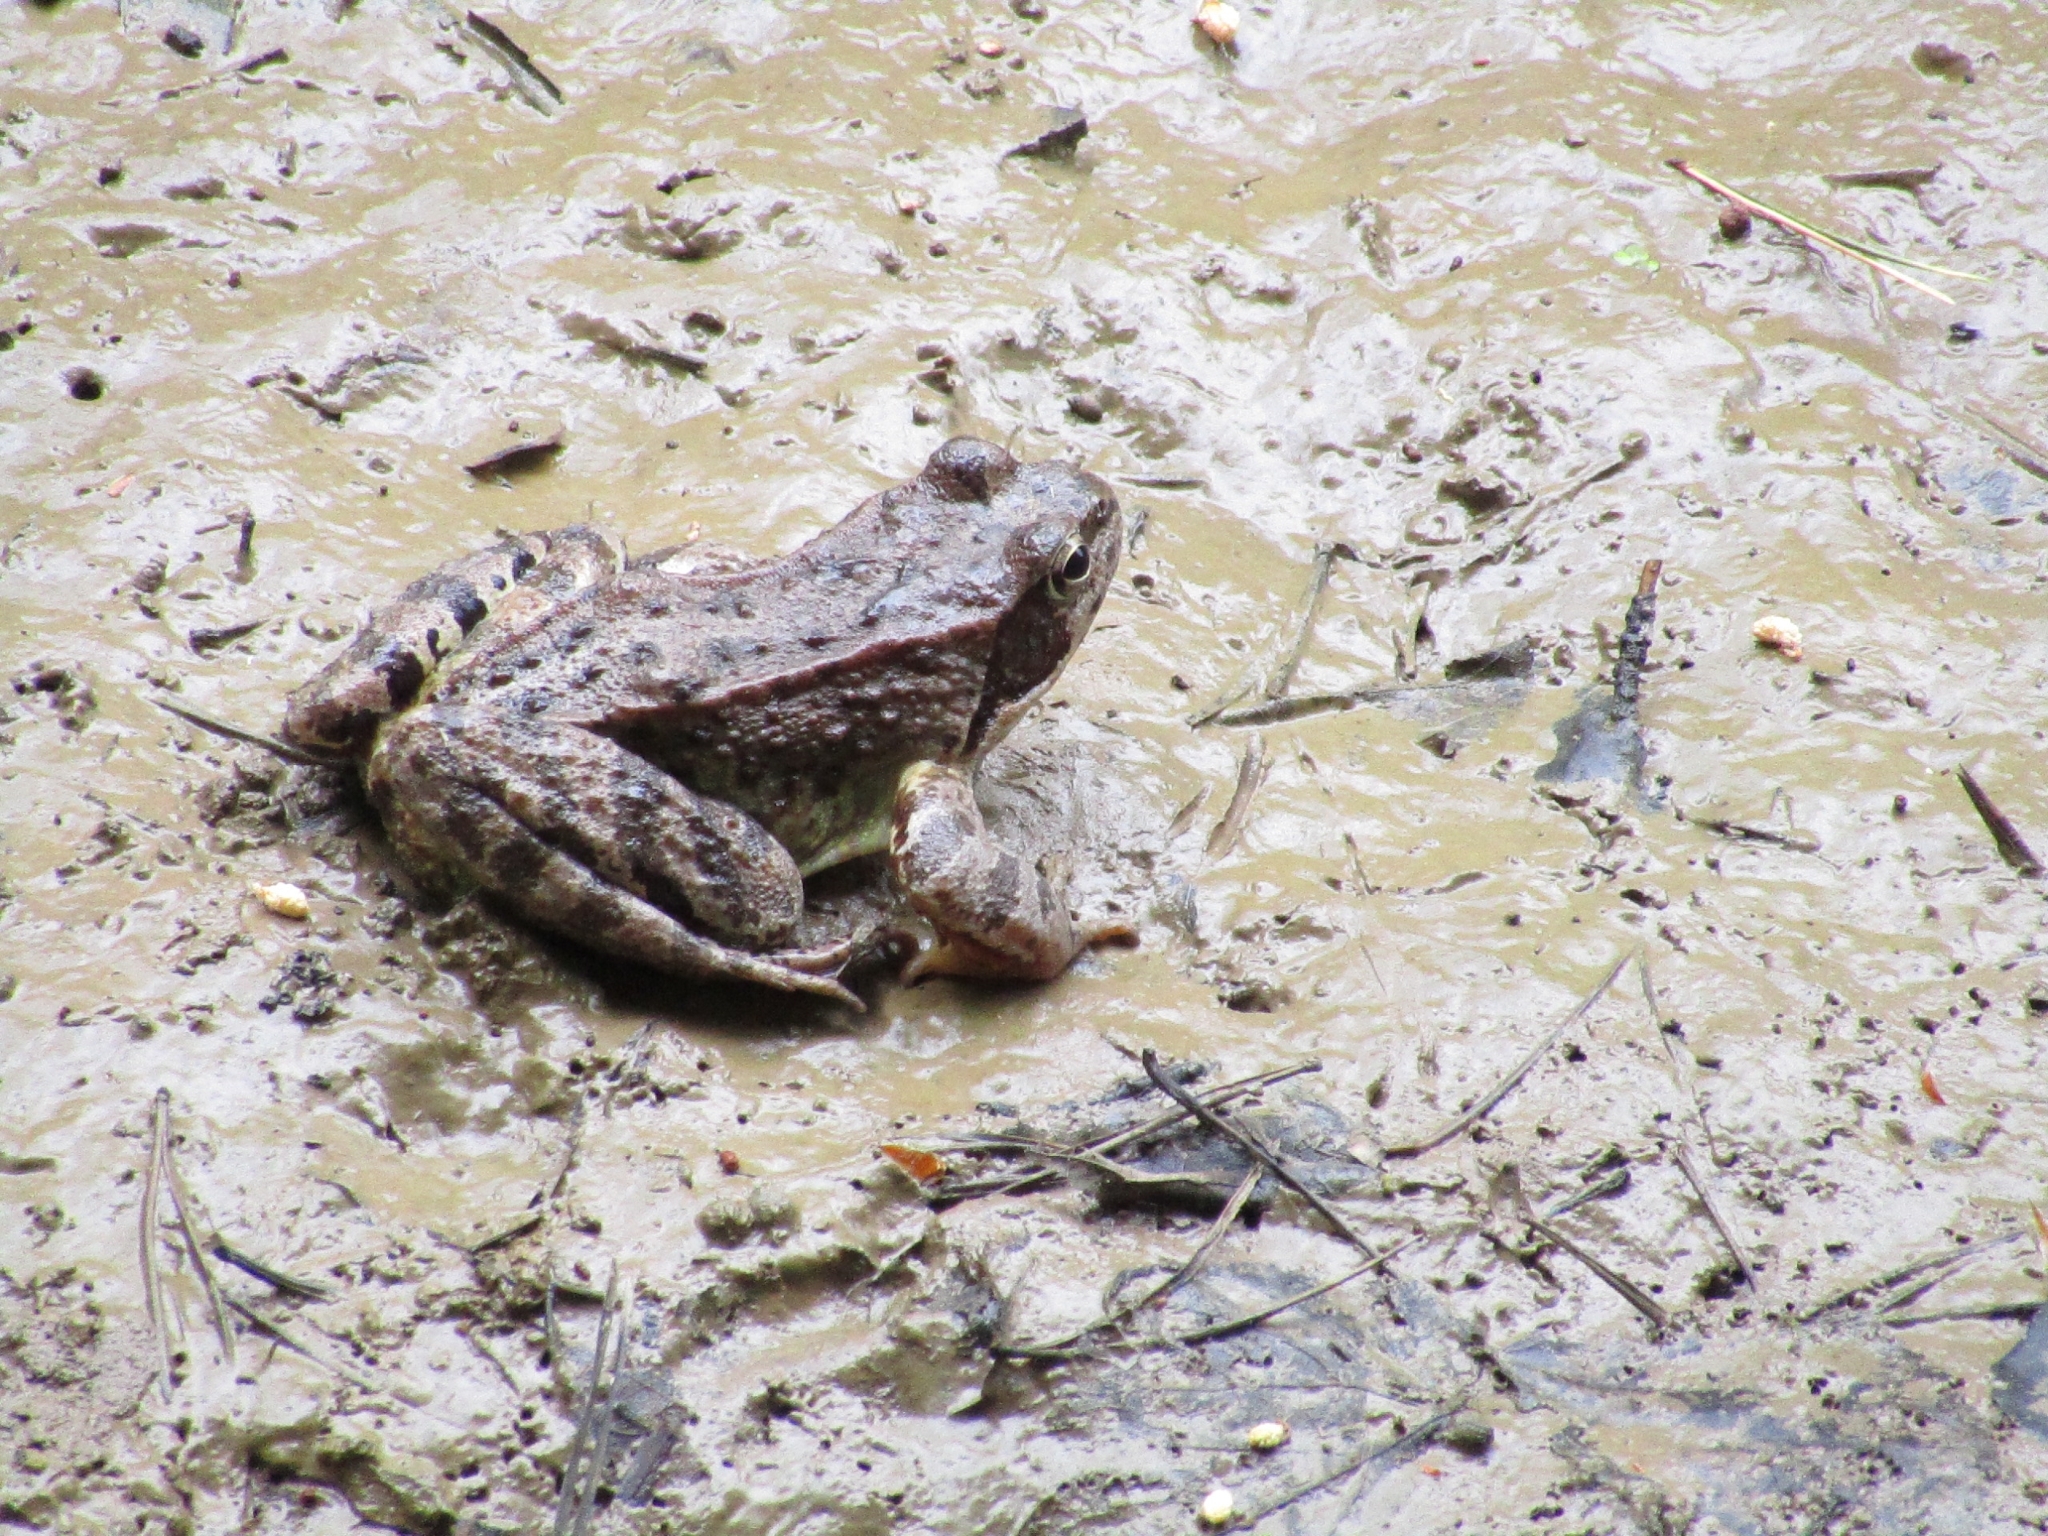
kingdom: Animalia
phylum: Chordata
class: Amphibia
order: Anura
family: Ranidae
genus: Rana
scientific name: Rana temporaria
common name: Common frog
